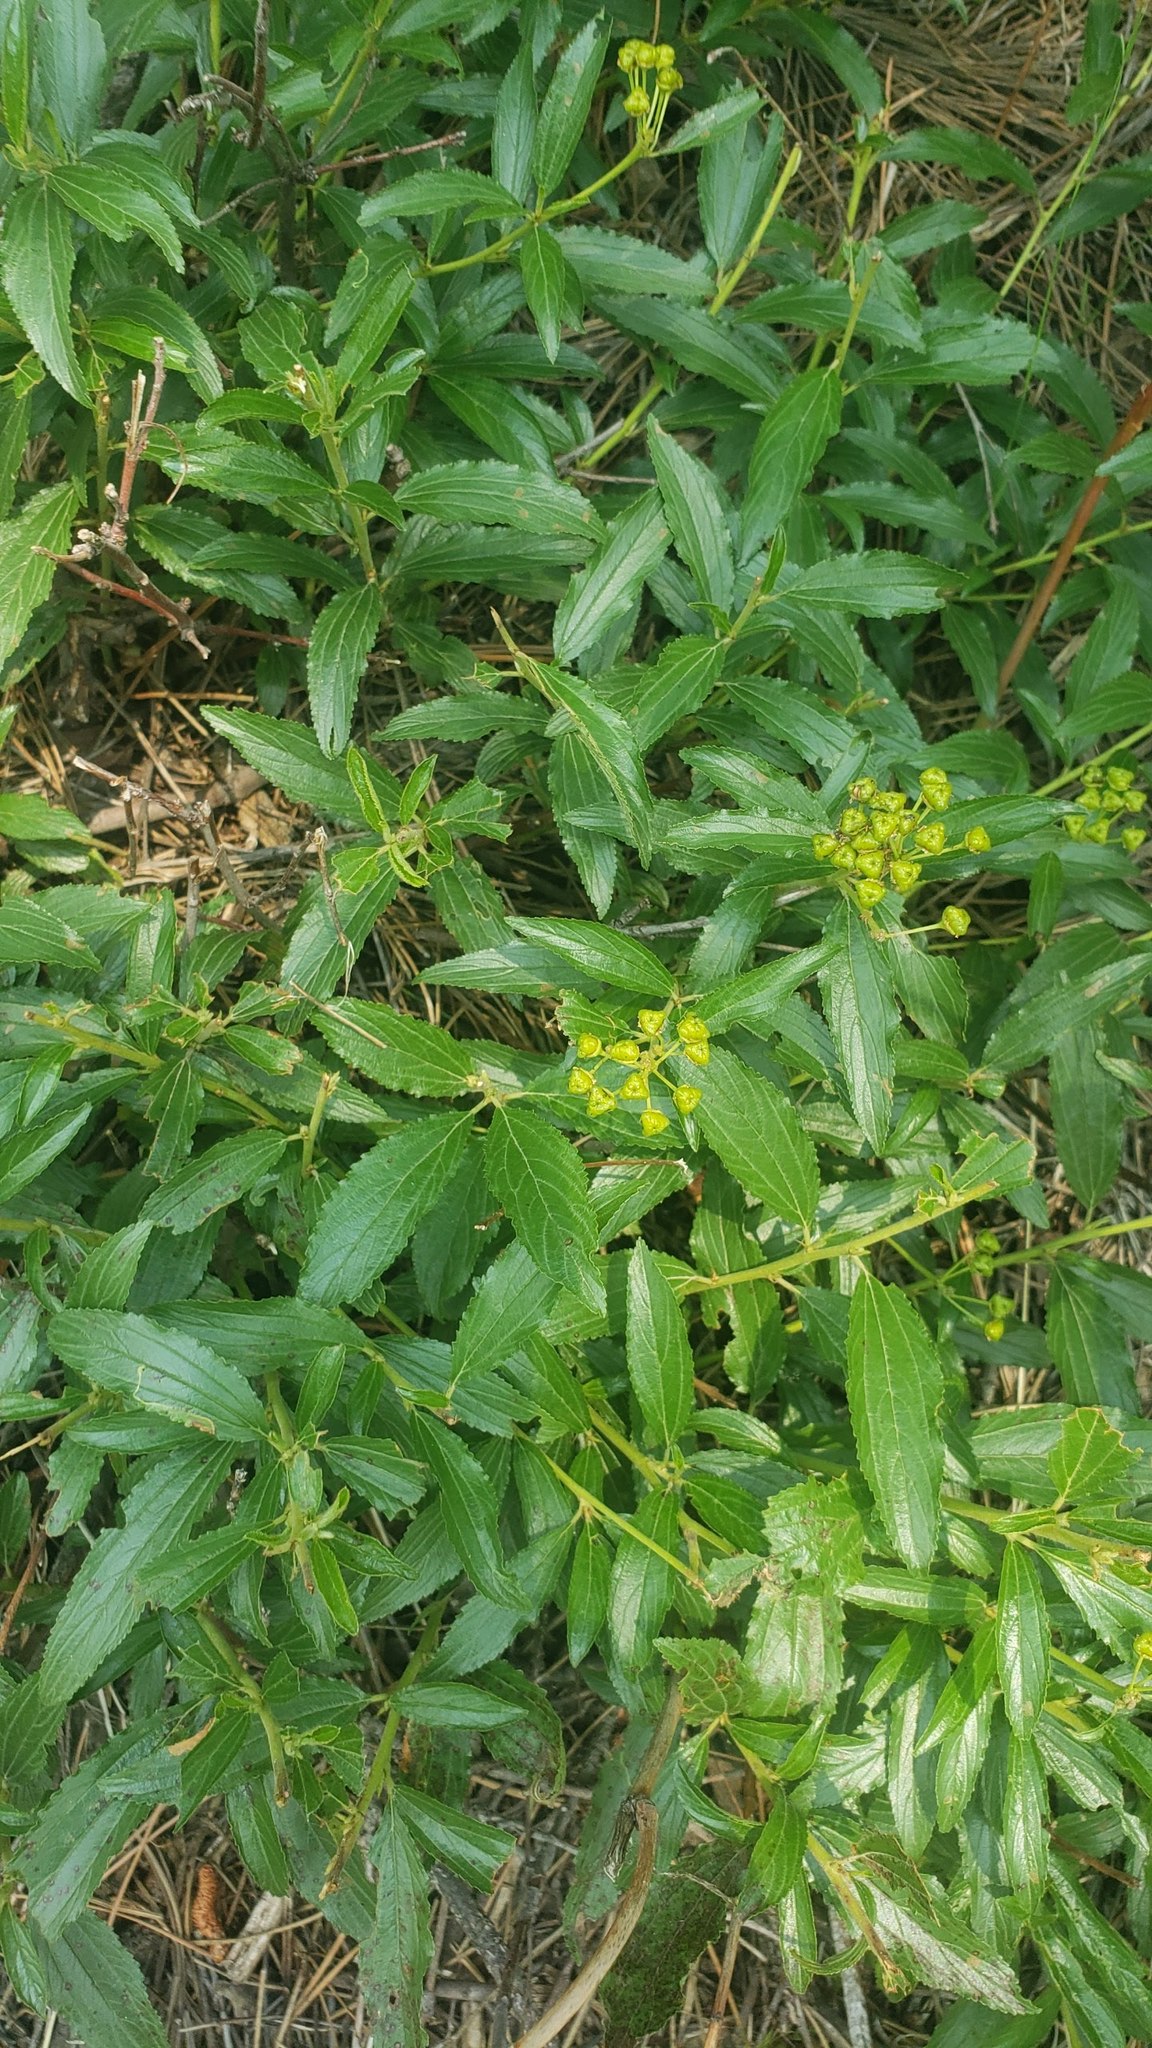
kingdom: Plantae
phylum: Tracheophyta
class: Magnoliopsida
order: Rosales
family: Rhamnaceae
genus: Ceanothus
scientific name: Ceanothus herbaceus
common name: Inland ceanothus
